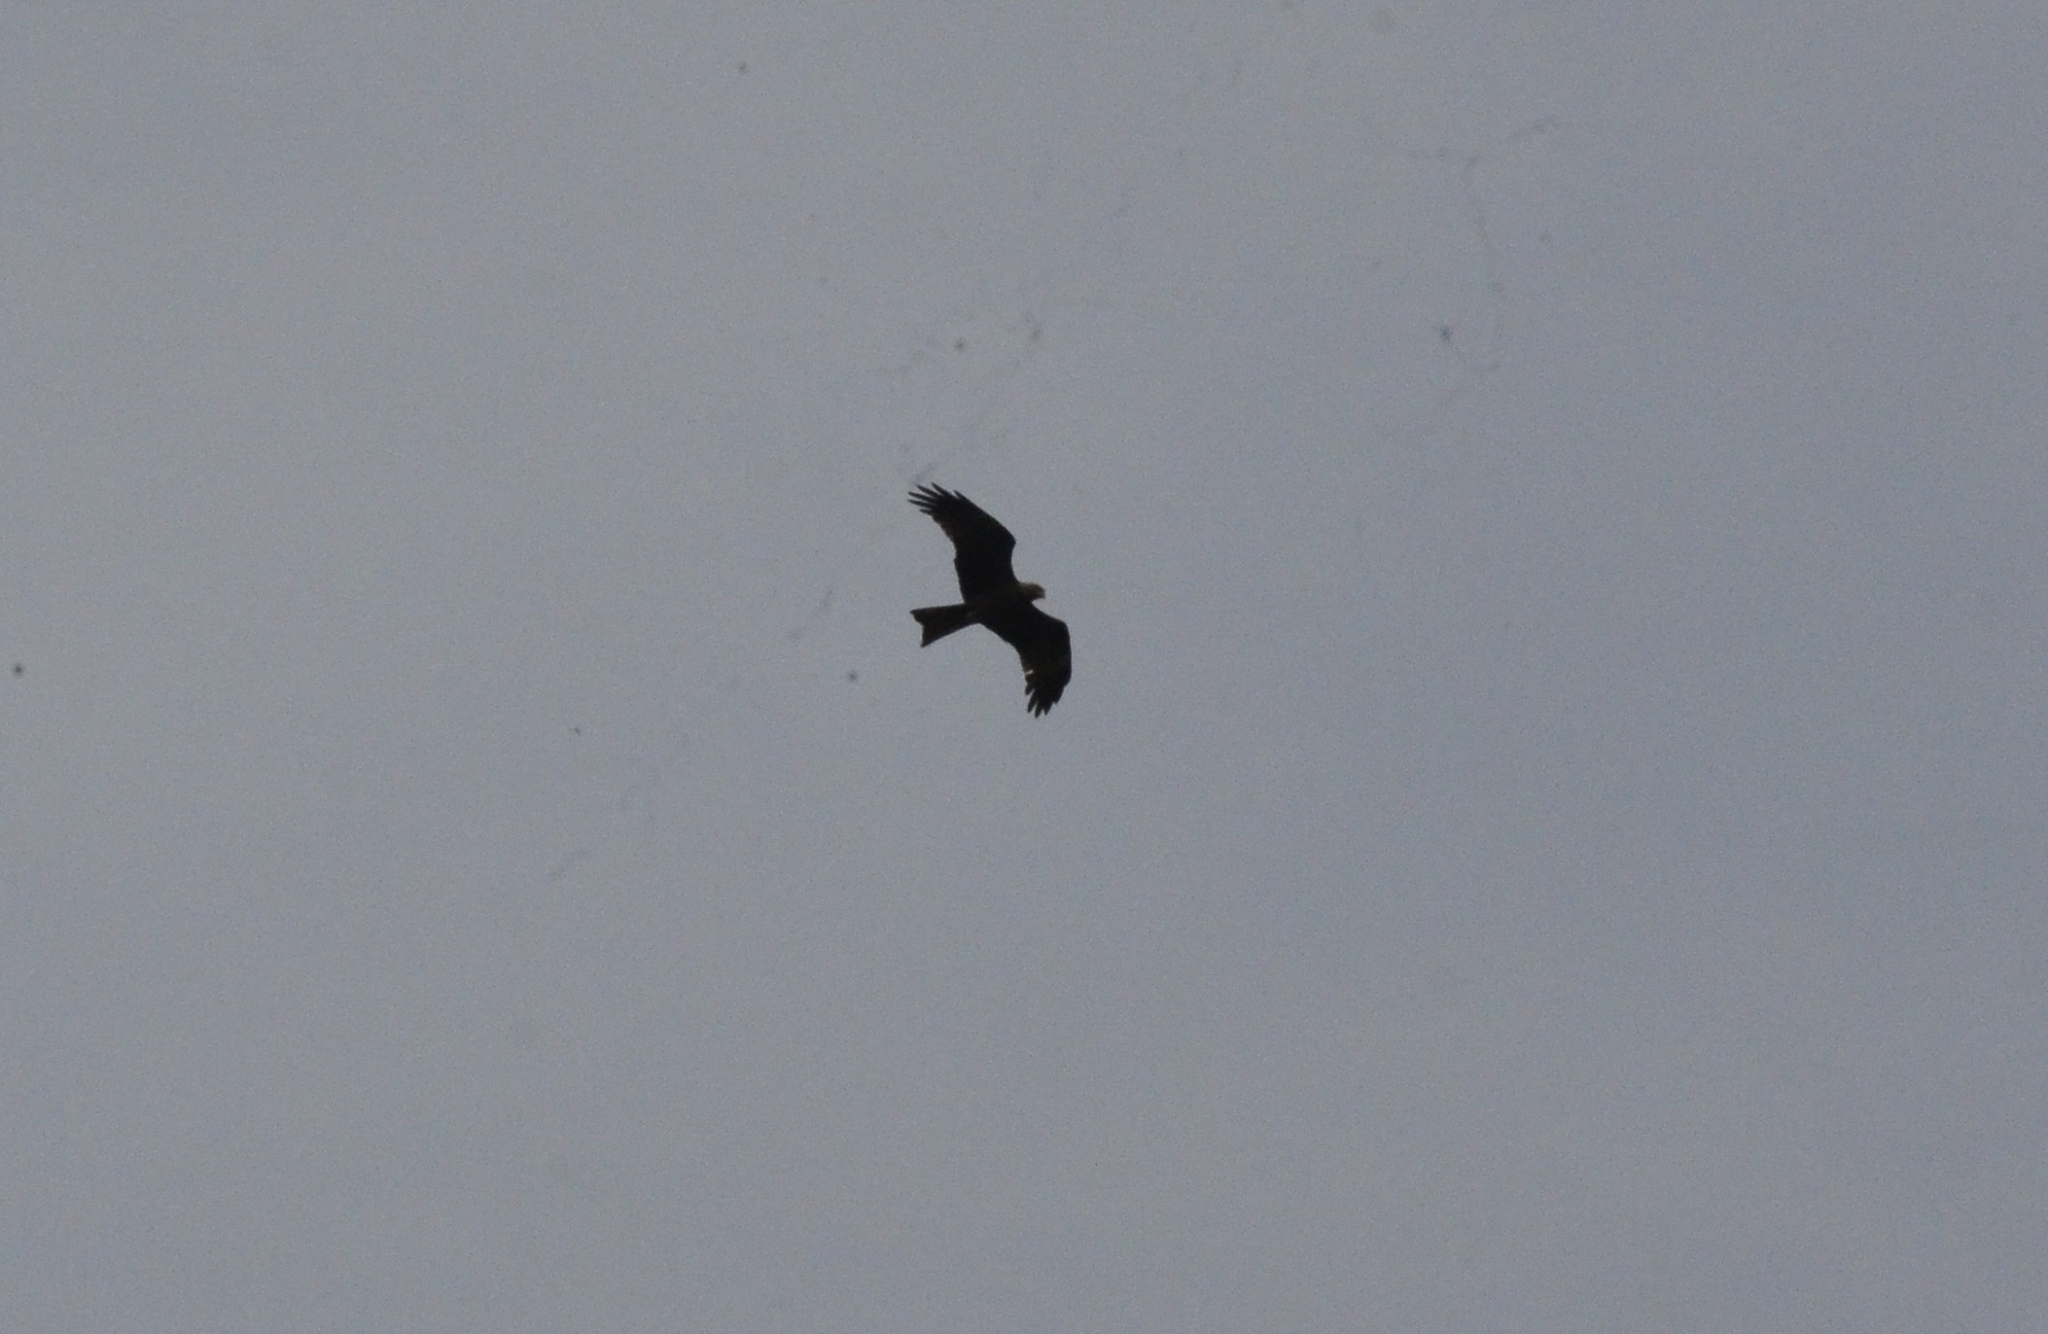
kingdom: Animalia
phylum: Chordata
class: Aves
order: Accipitriformes
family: Accipitridae
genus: Milvus
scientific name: Milvus migrans
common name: Black kite
